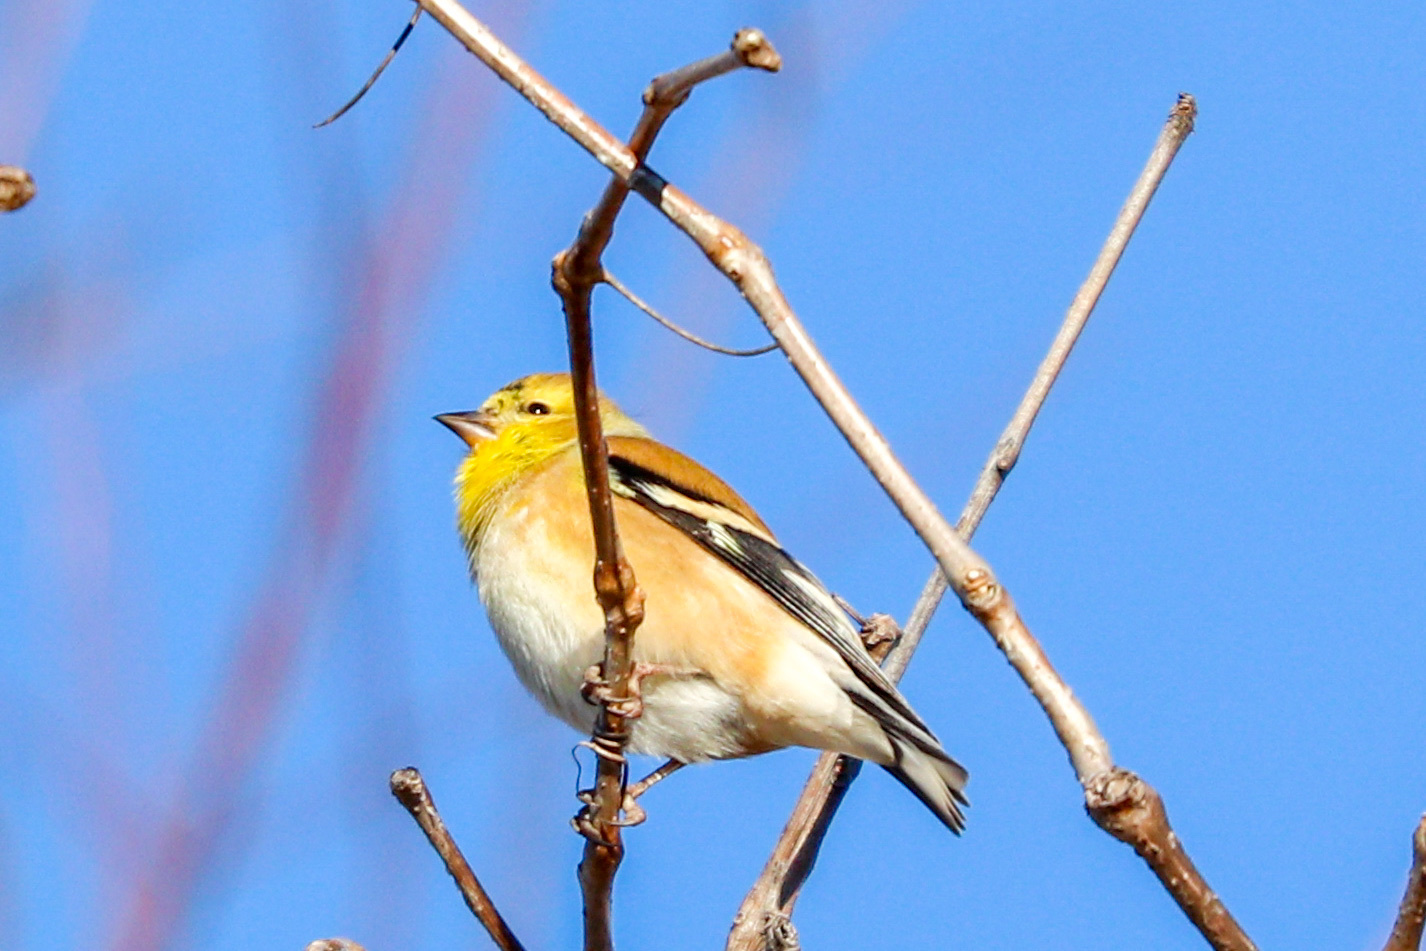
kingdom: Animalia
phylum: Chordata
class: Aves
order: Passeriformes
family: Fringillidae
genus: Spinus
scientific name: Spinus tristis
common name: American goldfinch
